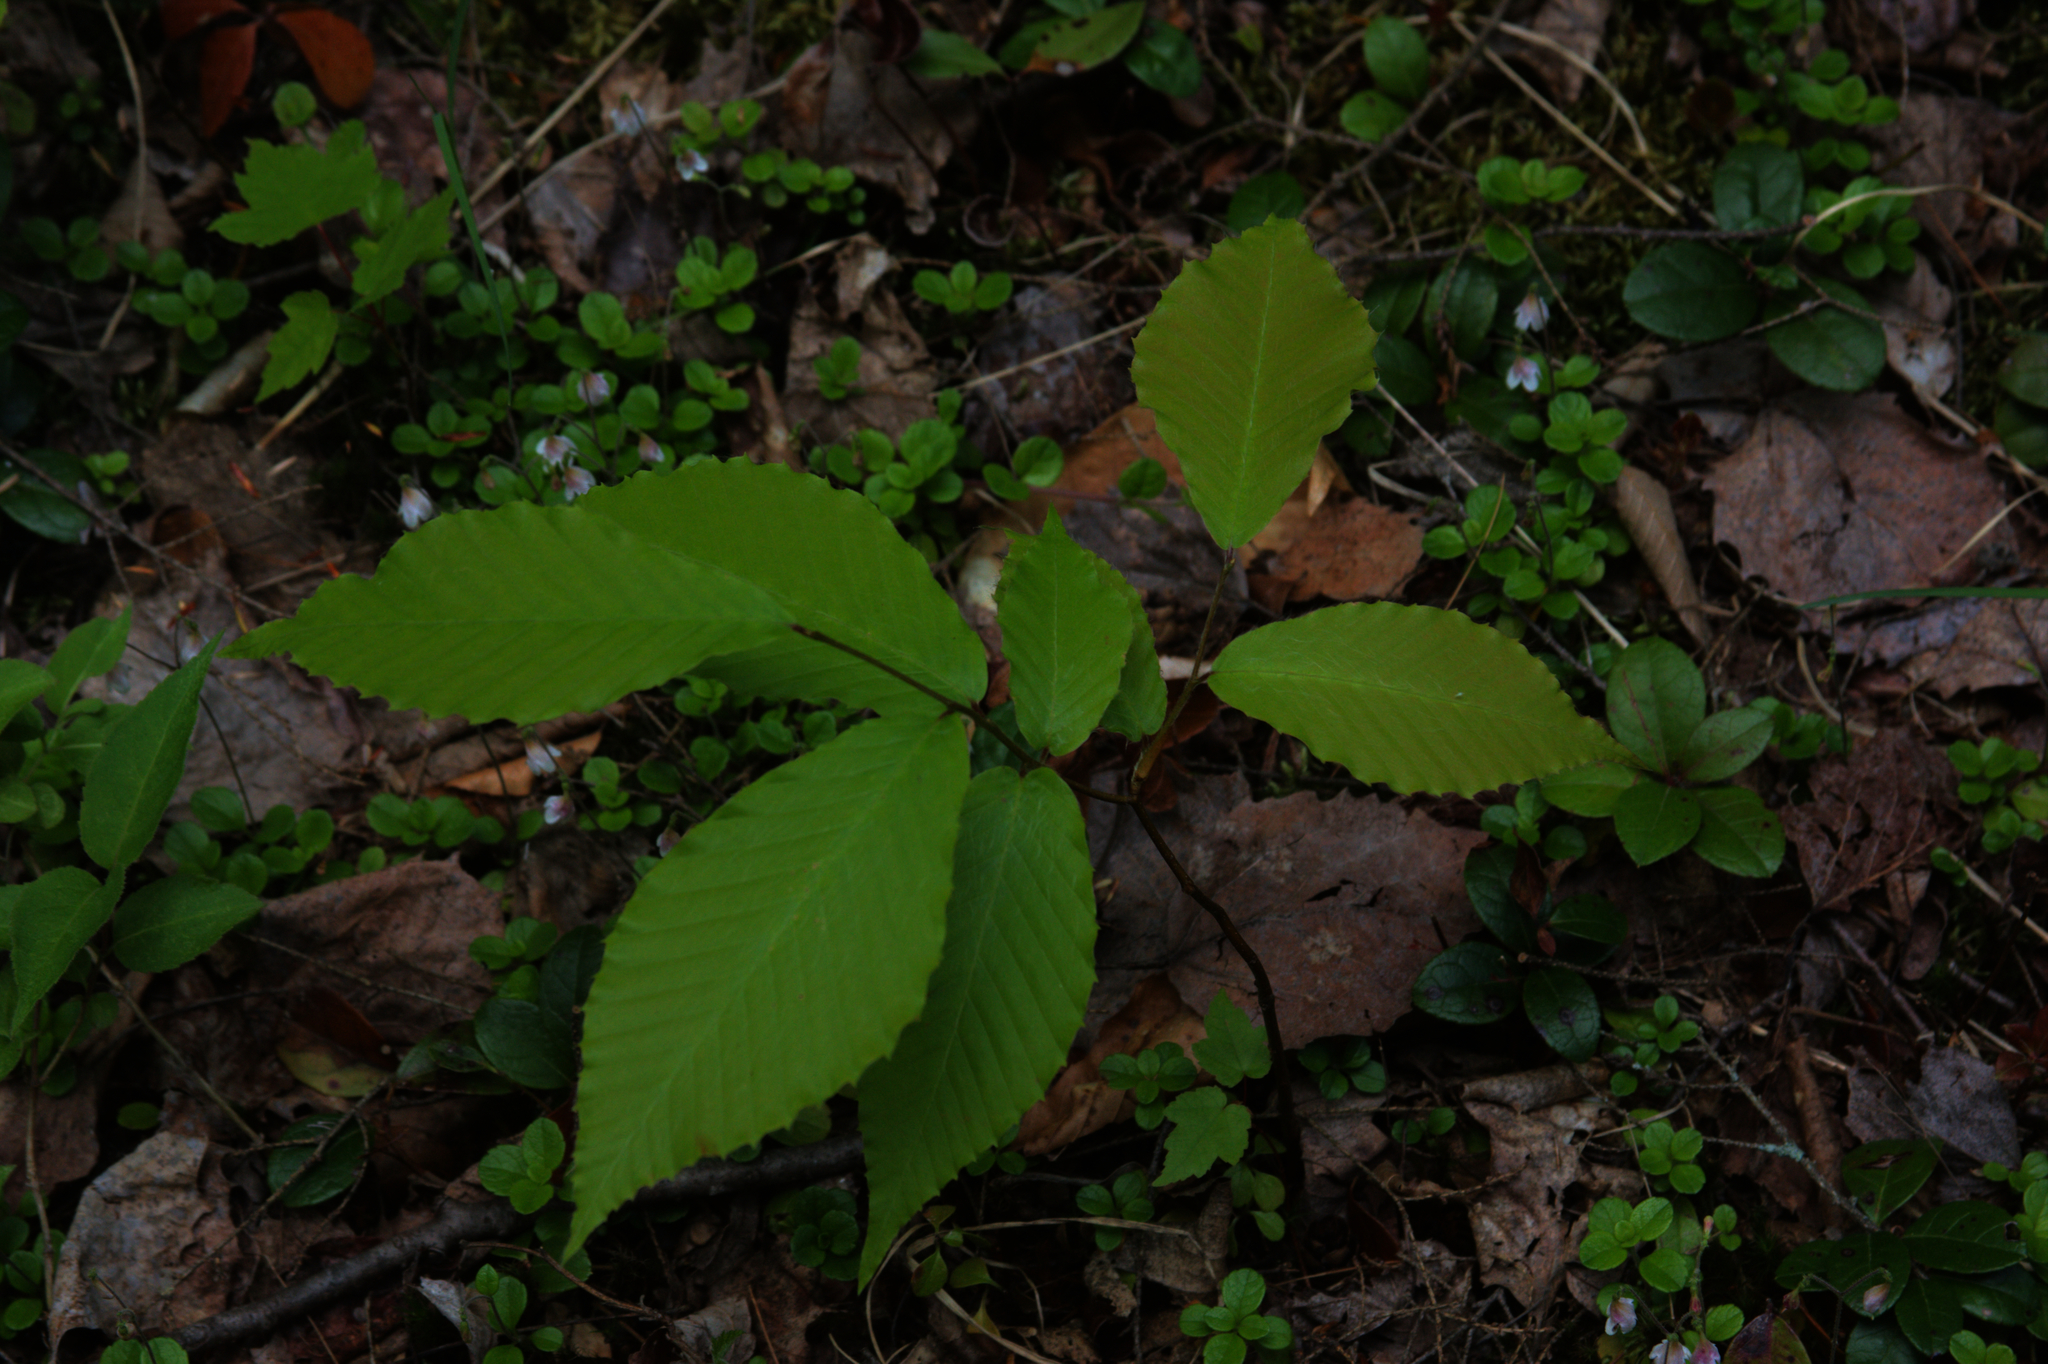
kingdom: Plantae
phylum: Tracheophyta
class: Magnoliopsida
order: Fagales
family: Fagaceae
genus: Fagus
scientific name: Fagus grandifolia
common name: American beech
